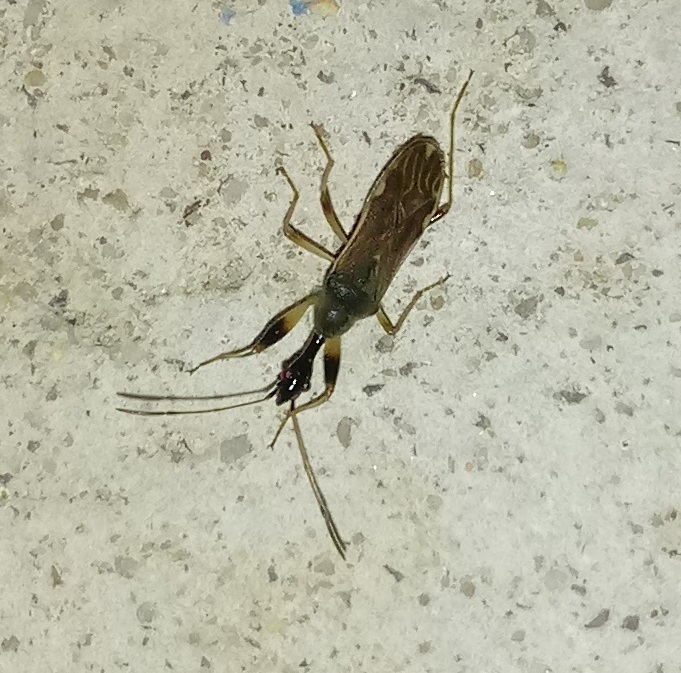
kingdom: Animalia
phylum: Arthropoda
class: Insecta
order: Hemiptera
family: Rhyparochromidae
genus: Myodocha
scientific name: Myodocha serripes
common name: Long-necked seed bug
